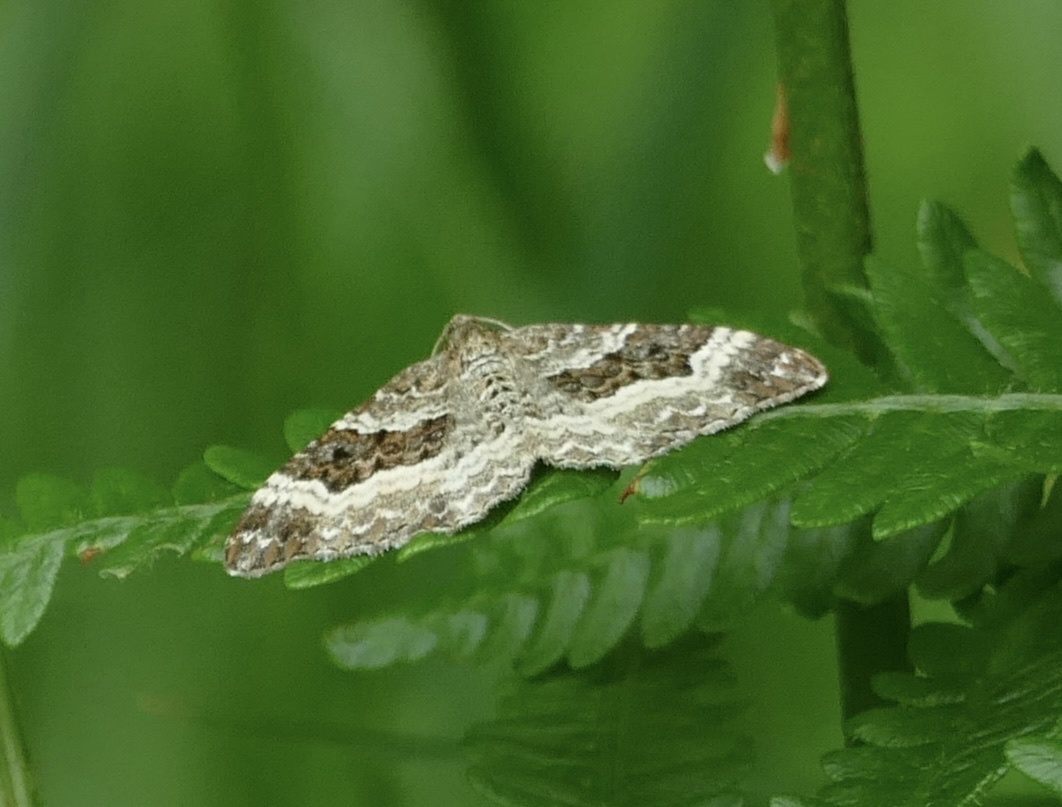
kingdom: Animalia
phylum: Arthropoda
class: Insecta
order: Lepidoptera
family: Geometridae
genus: Epirrhoe
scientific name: Epirrhoe alternata
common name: Common carpet
